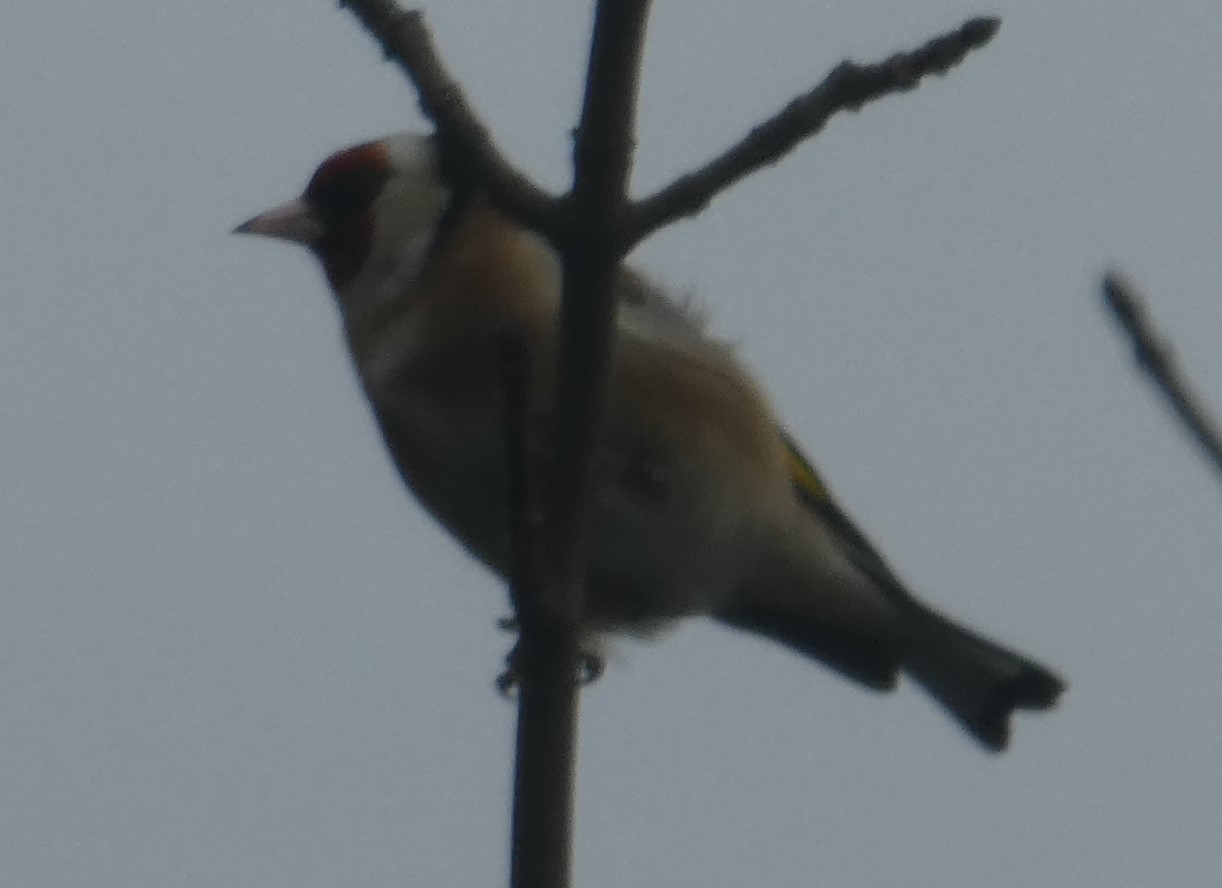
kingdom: Animalia
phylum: Chordata
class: Aves
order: Passeriformes
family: Fringillidae
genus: Carduelis
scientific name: Carduelis carduelis
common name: European goldfinch
